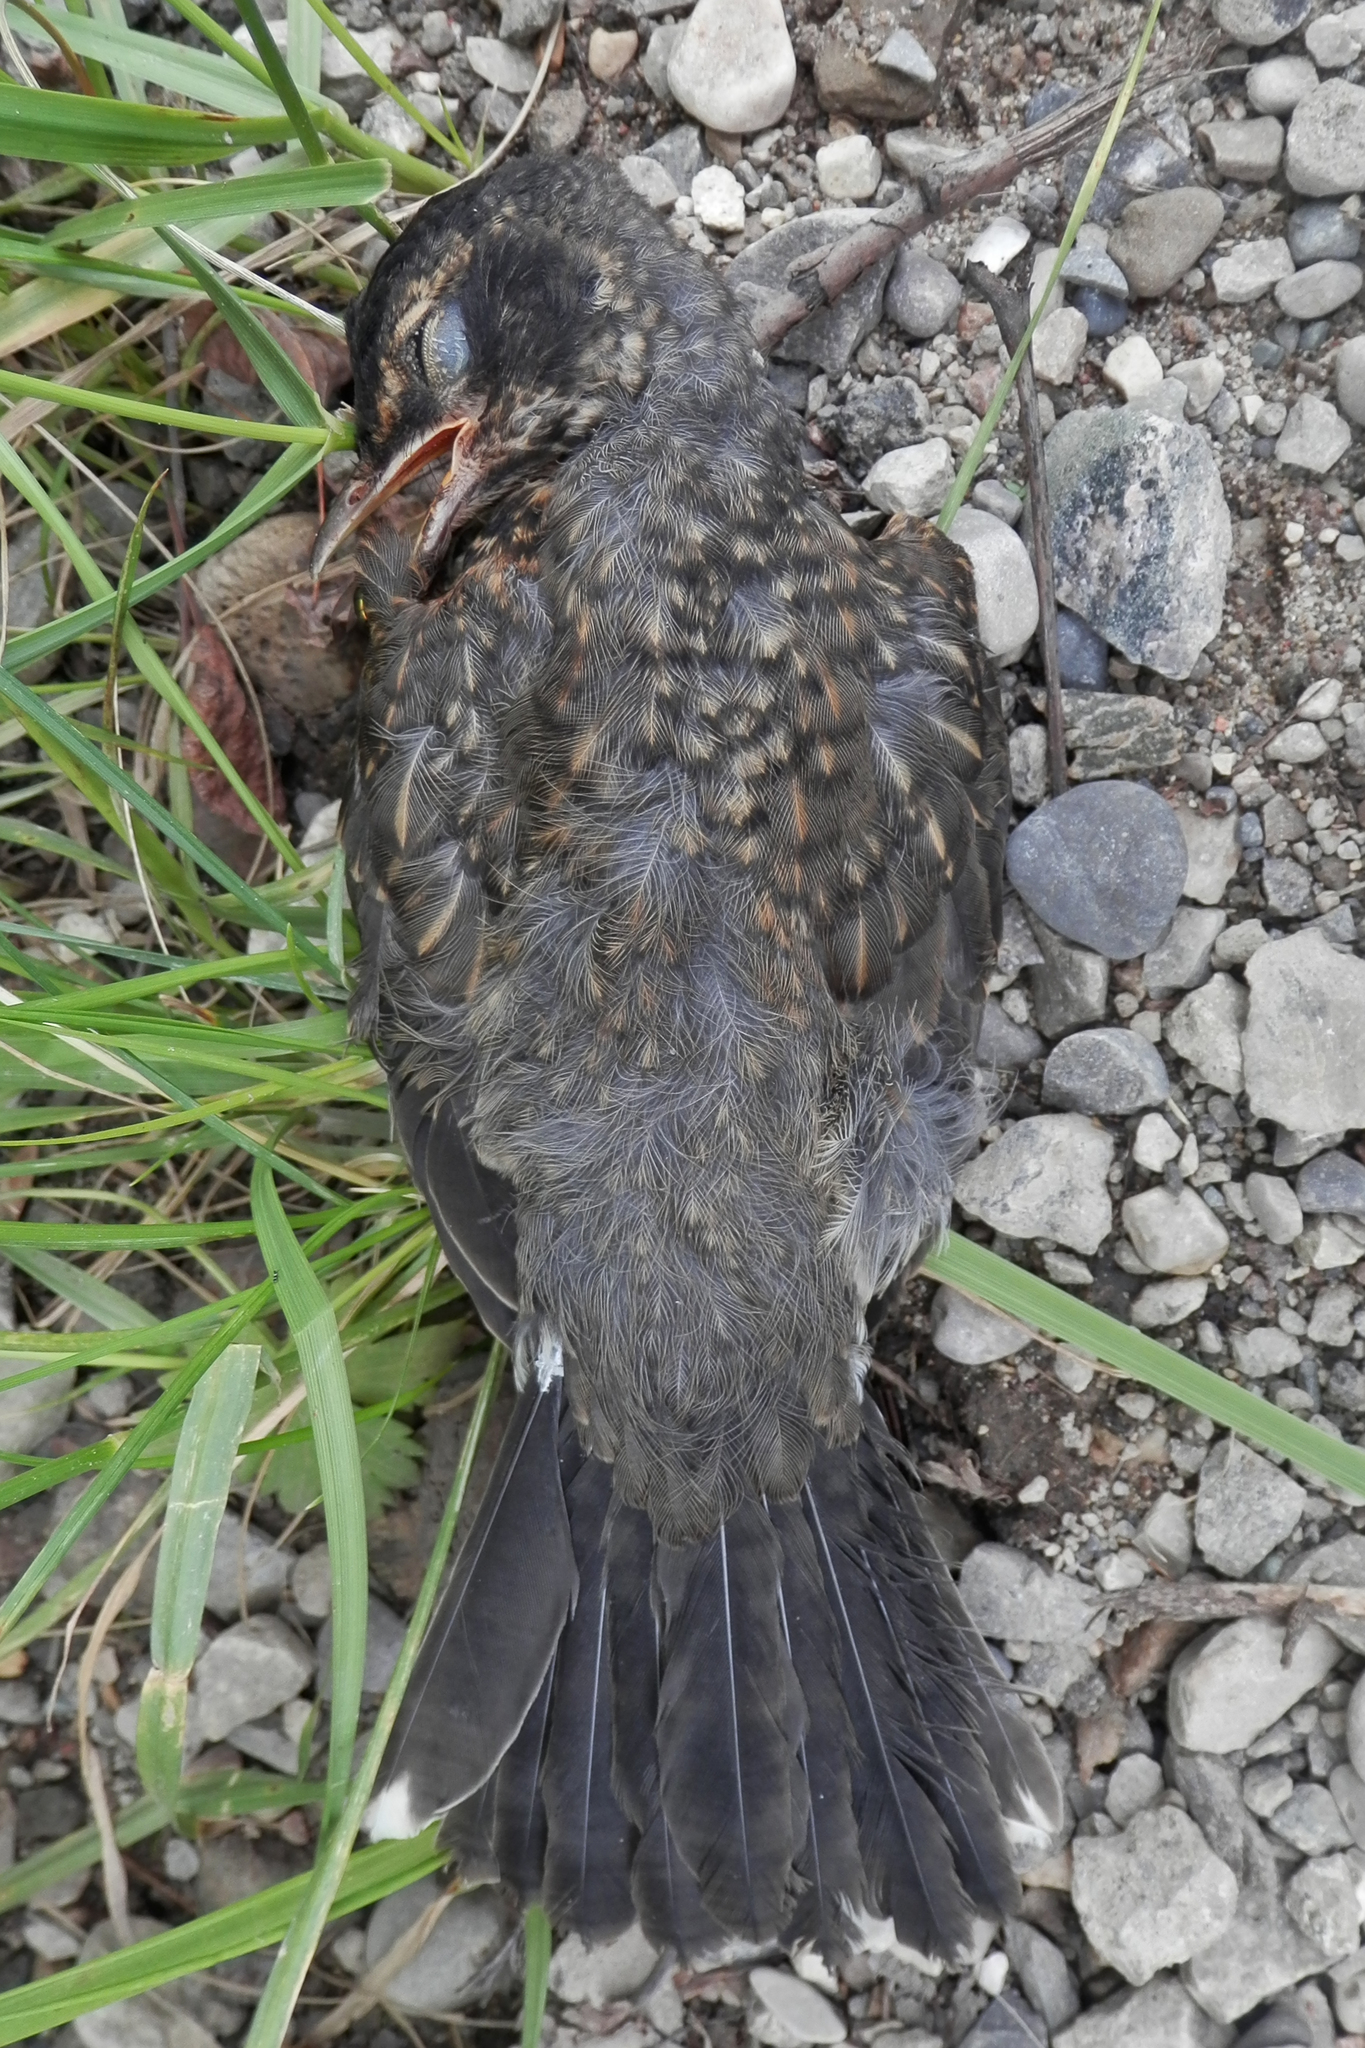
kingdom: Animalia
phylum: Chordata
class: Aves
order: Passeriformes
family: Turdidae
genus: Turdus
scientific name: Turdus migratorius
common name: American robin
